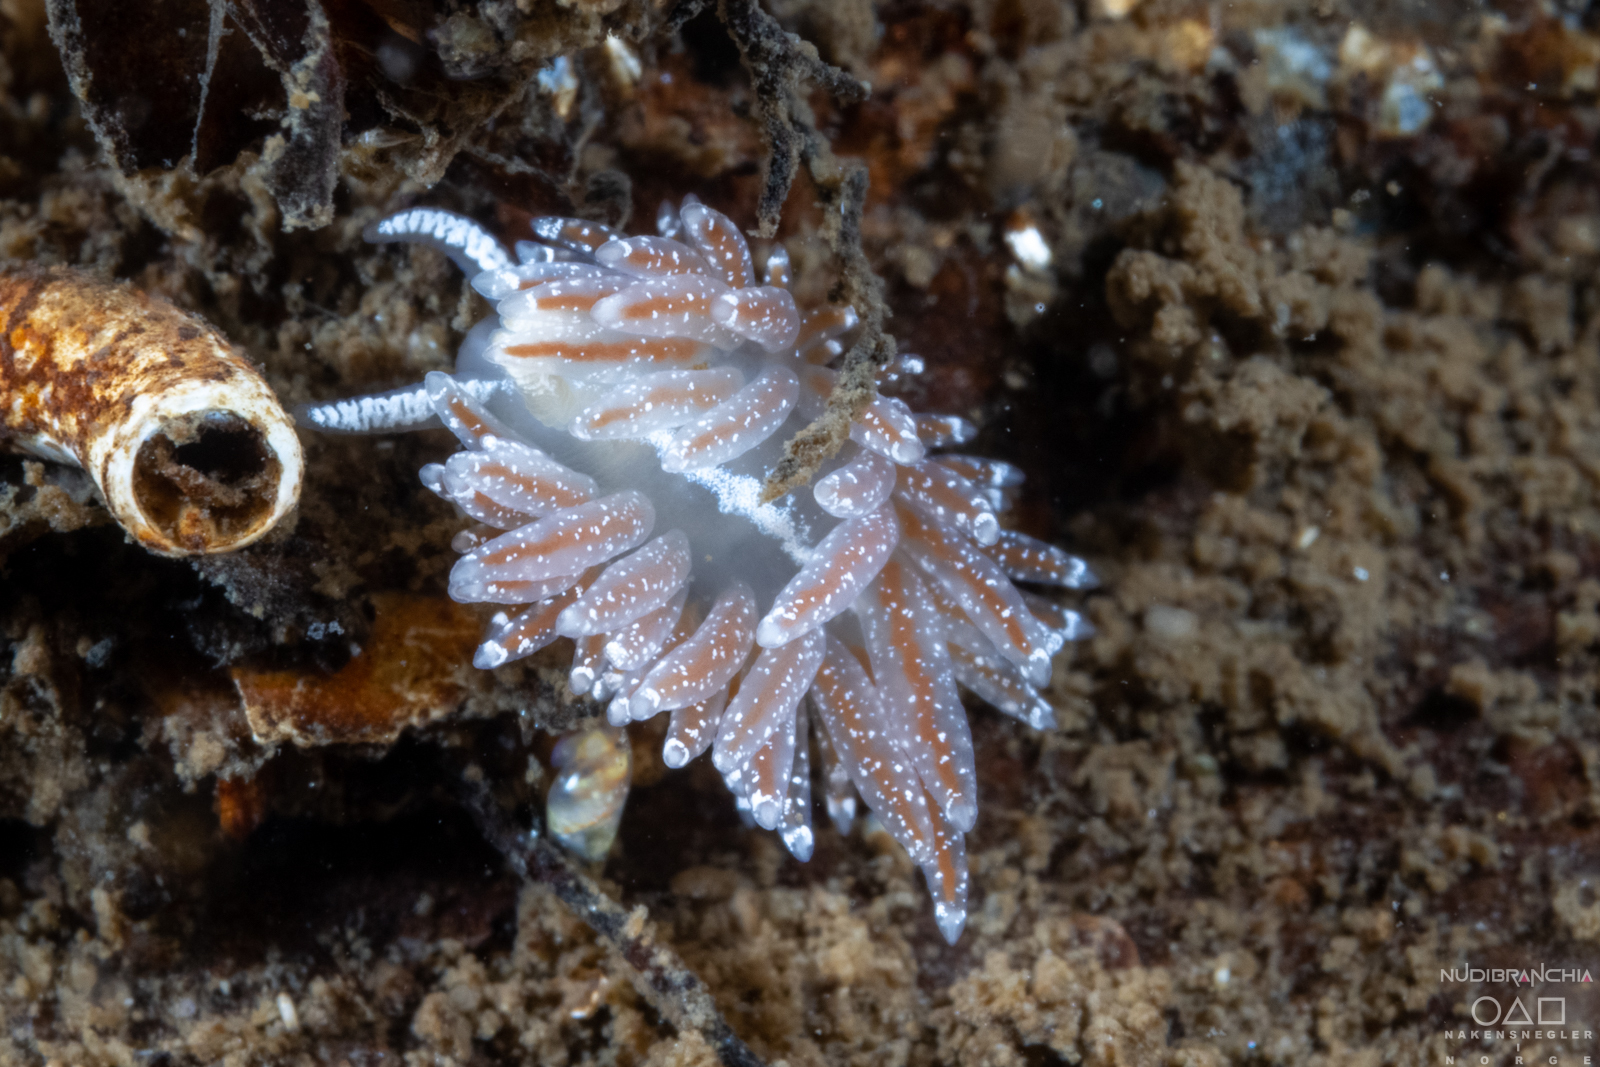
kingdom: Animalia
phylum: Mollusca
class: Gastropoda
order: Nudibranchia
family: Coryphellidae
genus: Coryphella
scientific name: Coryphella orjani
